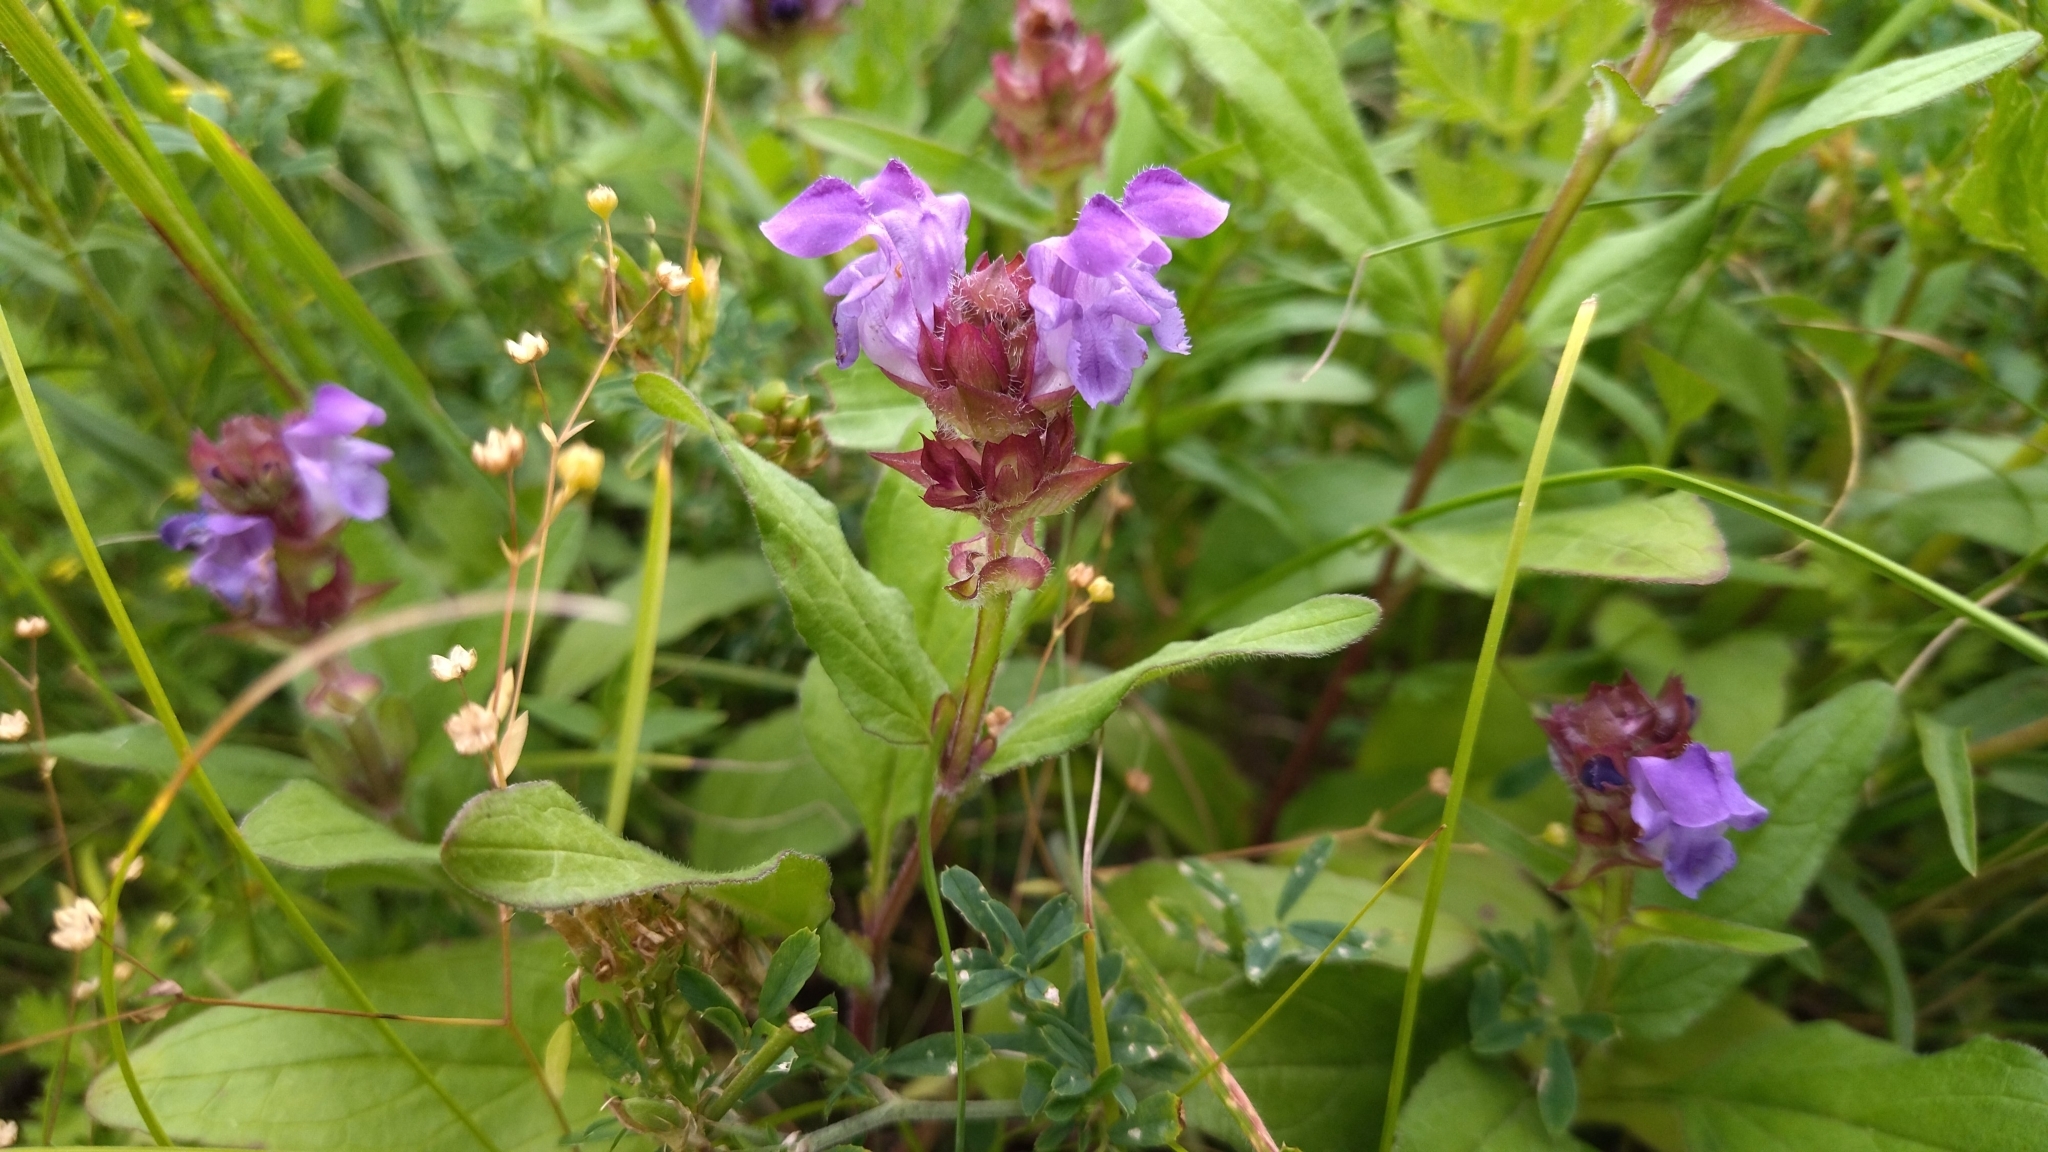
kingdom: Plantae
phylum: Tracheophyta
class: Magnoliopsida
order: Lamiales
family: Lamiaceae
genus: Prunella
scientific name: Prunella grandiflora
